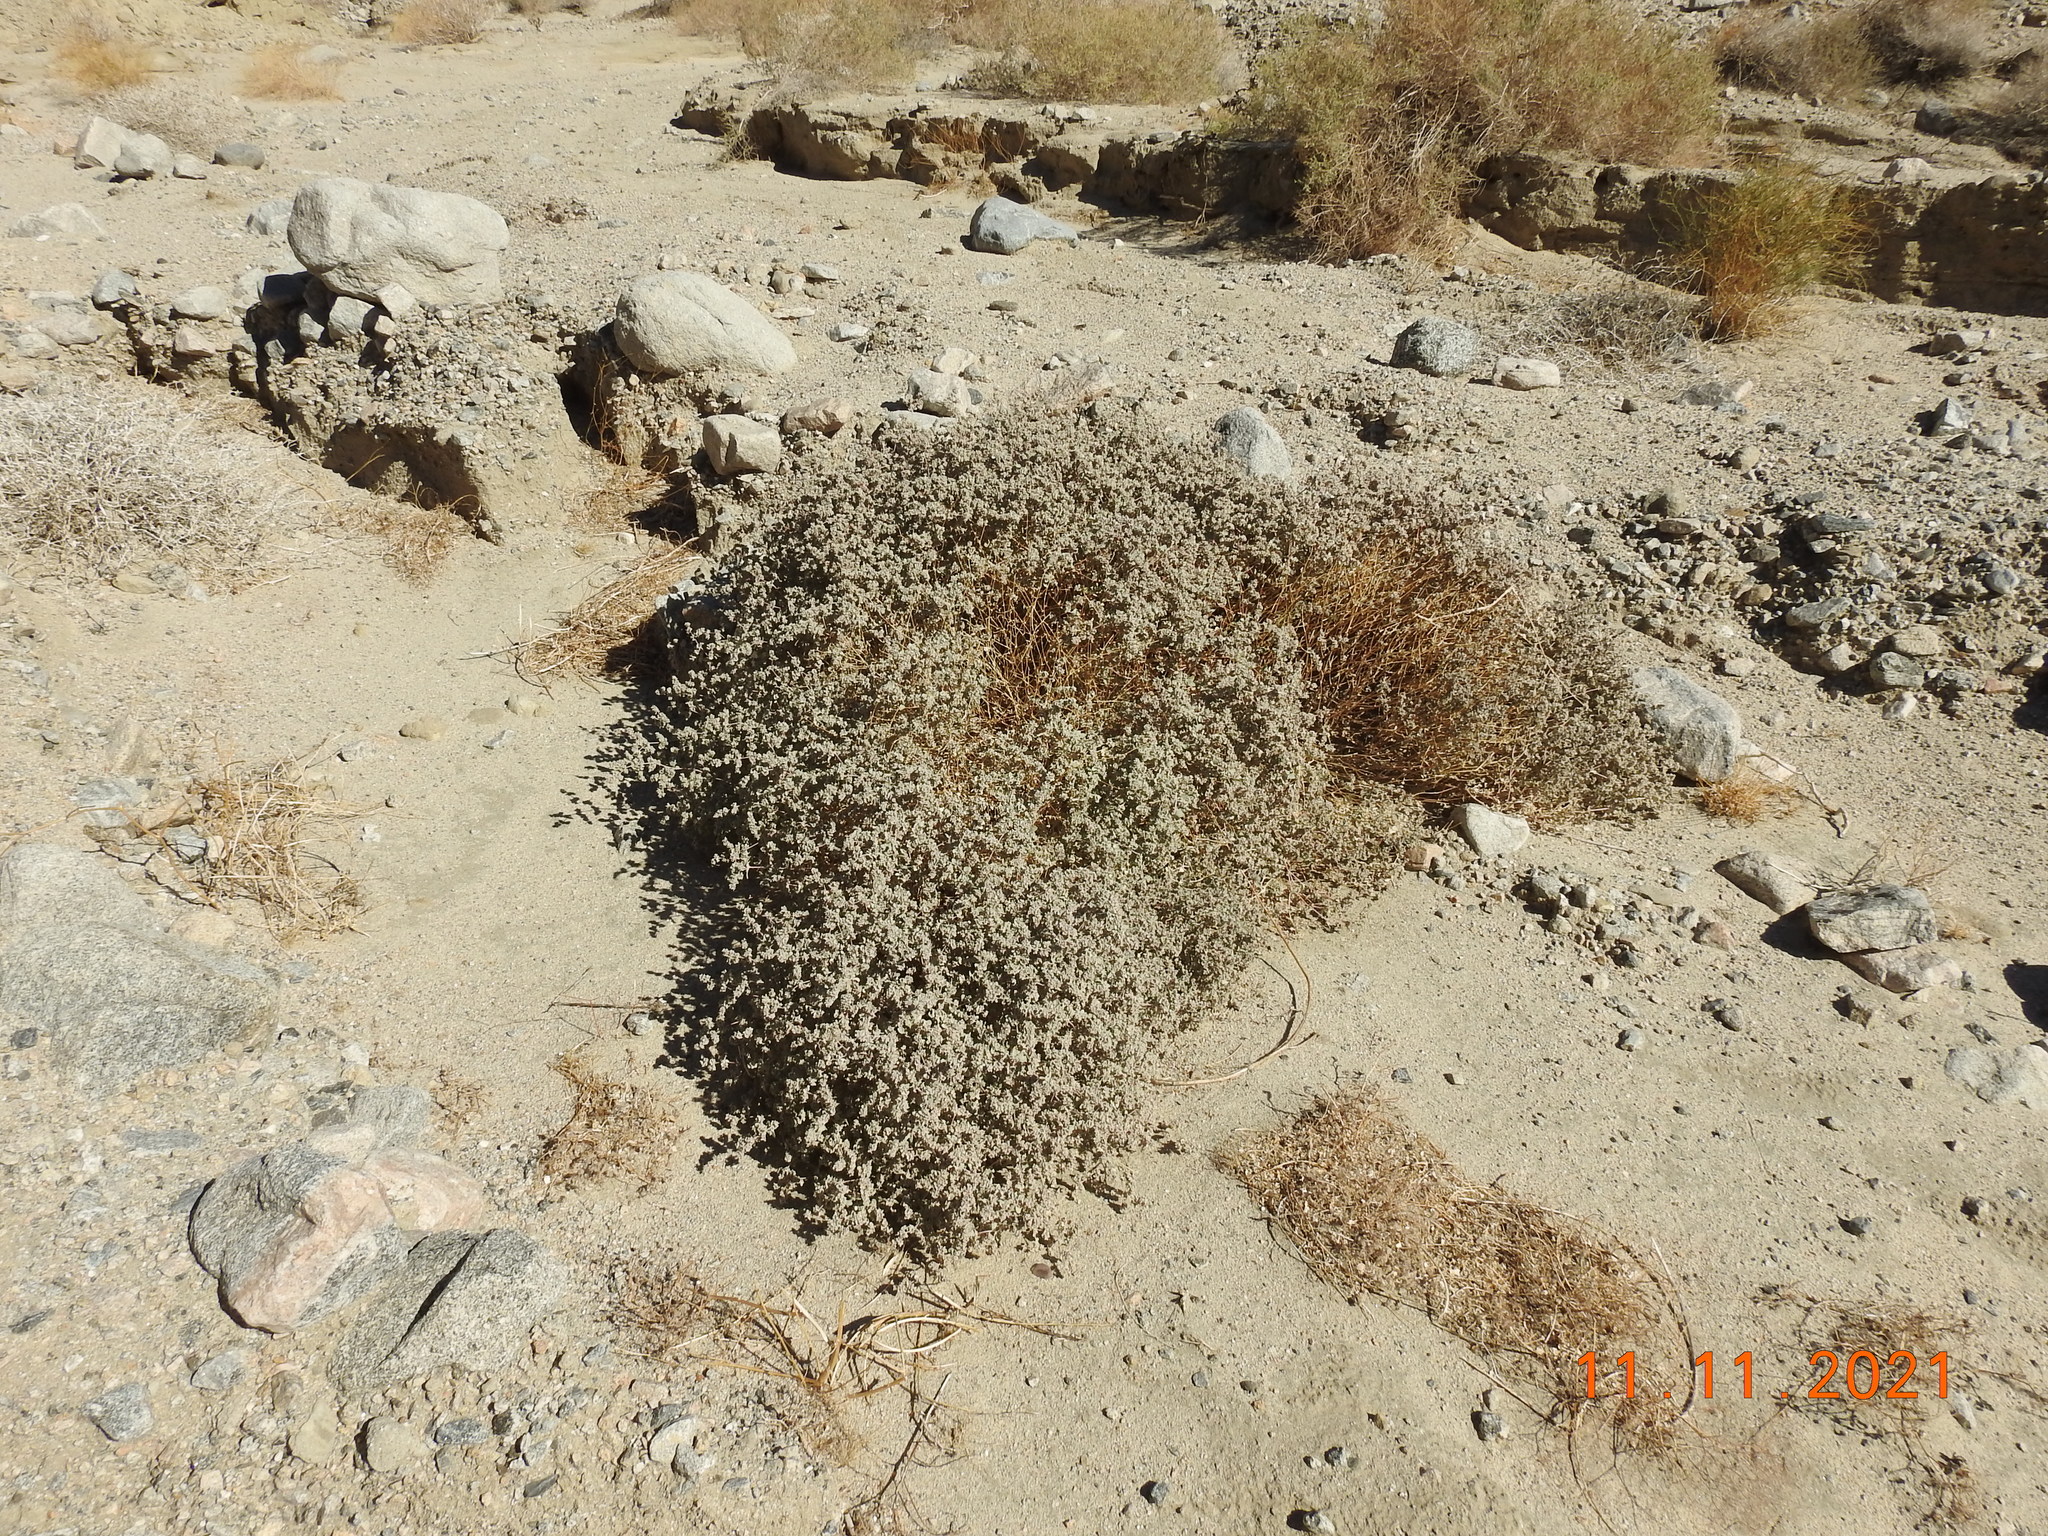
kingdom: Plantae
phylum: Tracheophyta
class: Magnoliopsida
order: Caryophyllales
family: Amaranthaceae
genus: Tidestromia
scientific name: Tidestromia suffruticosa
